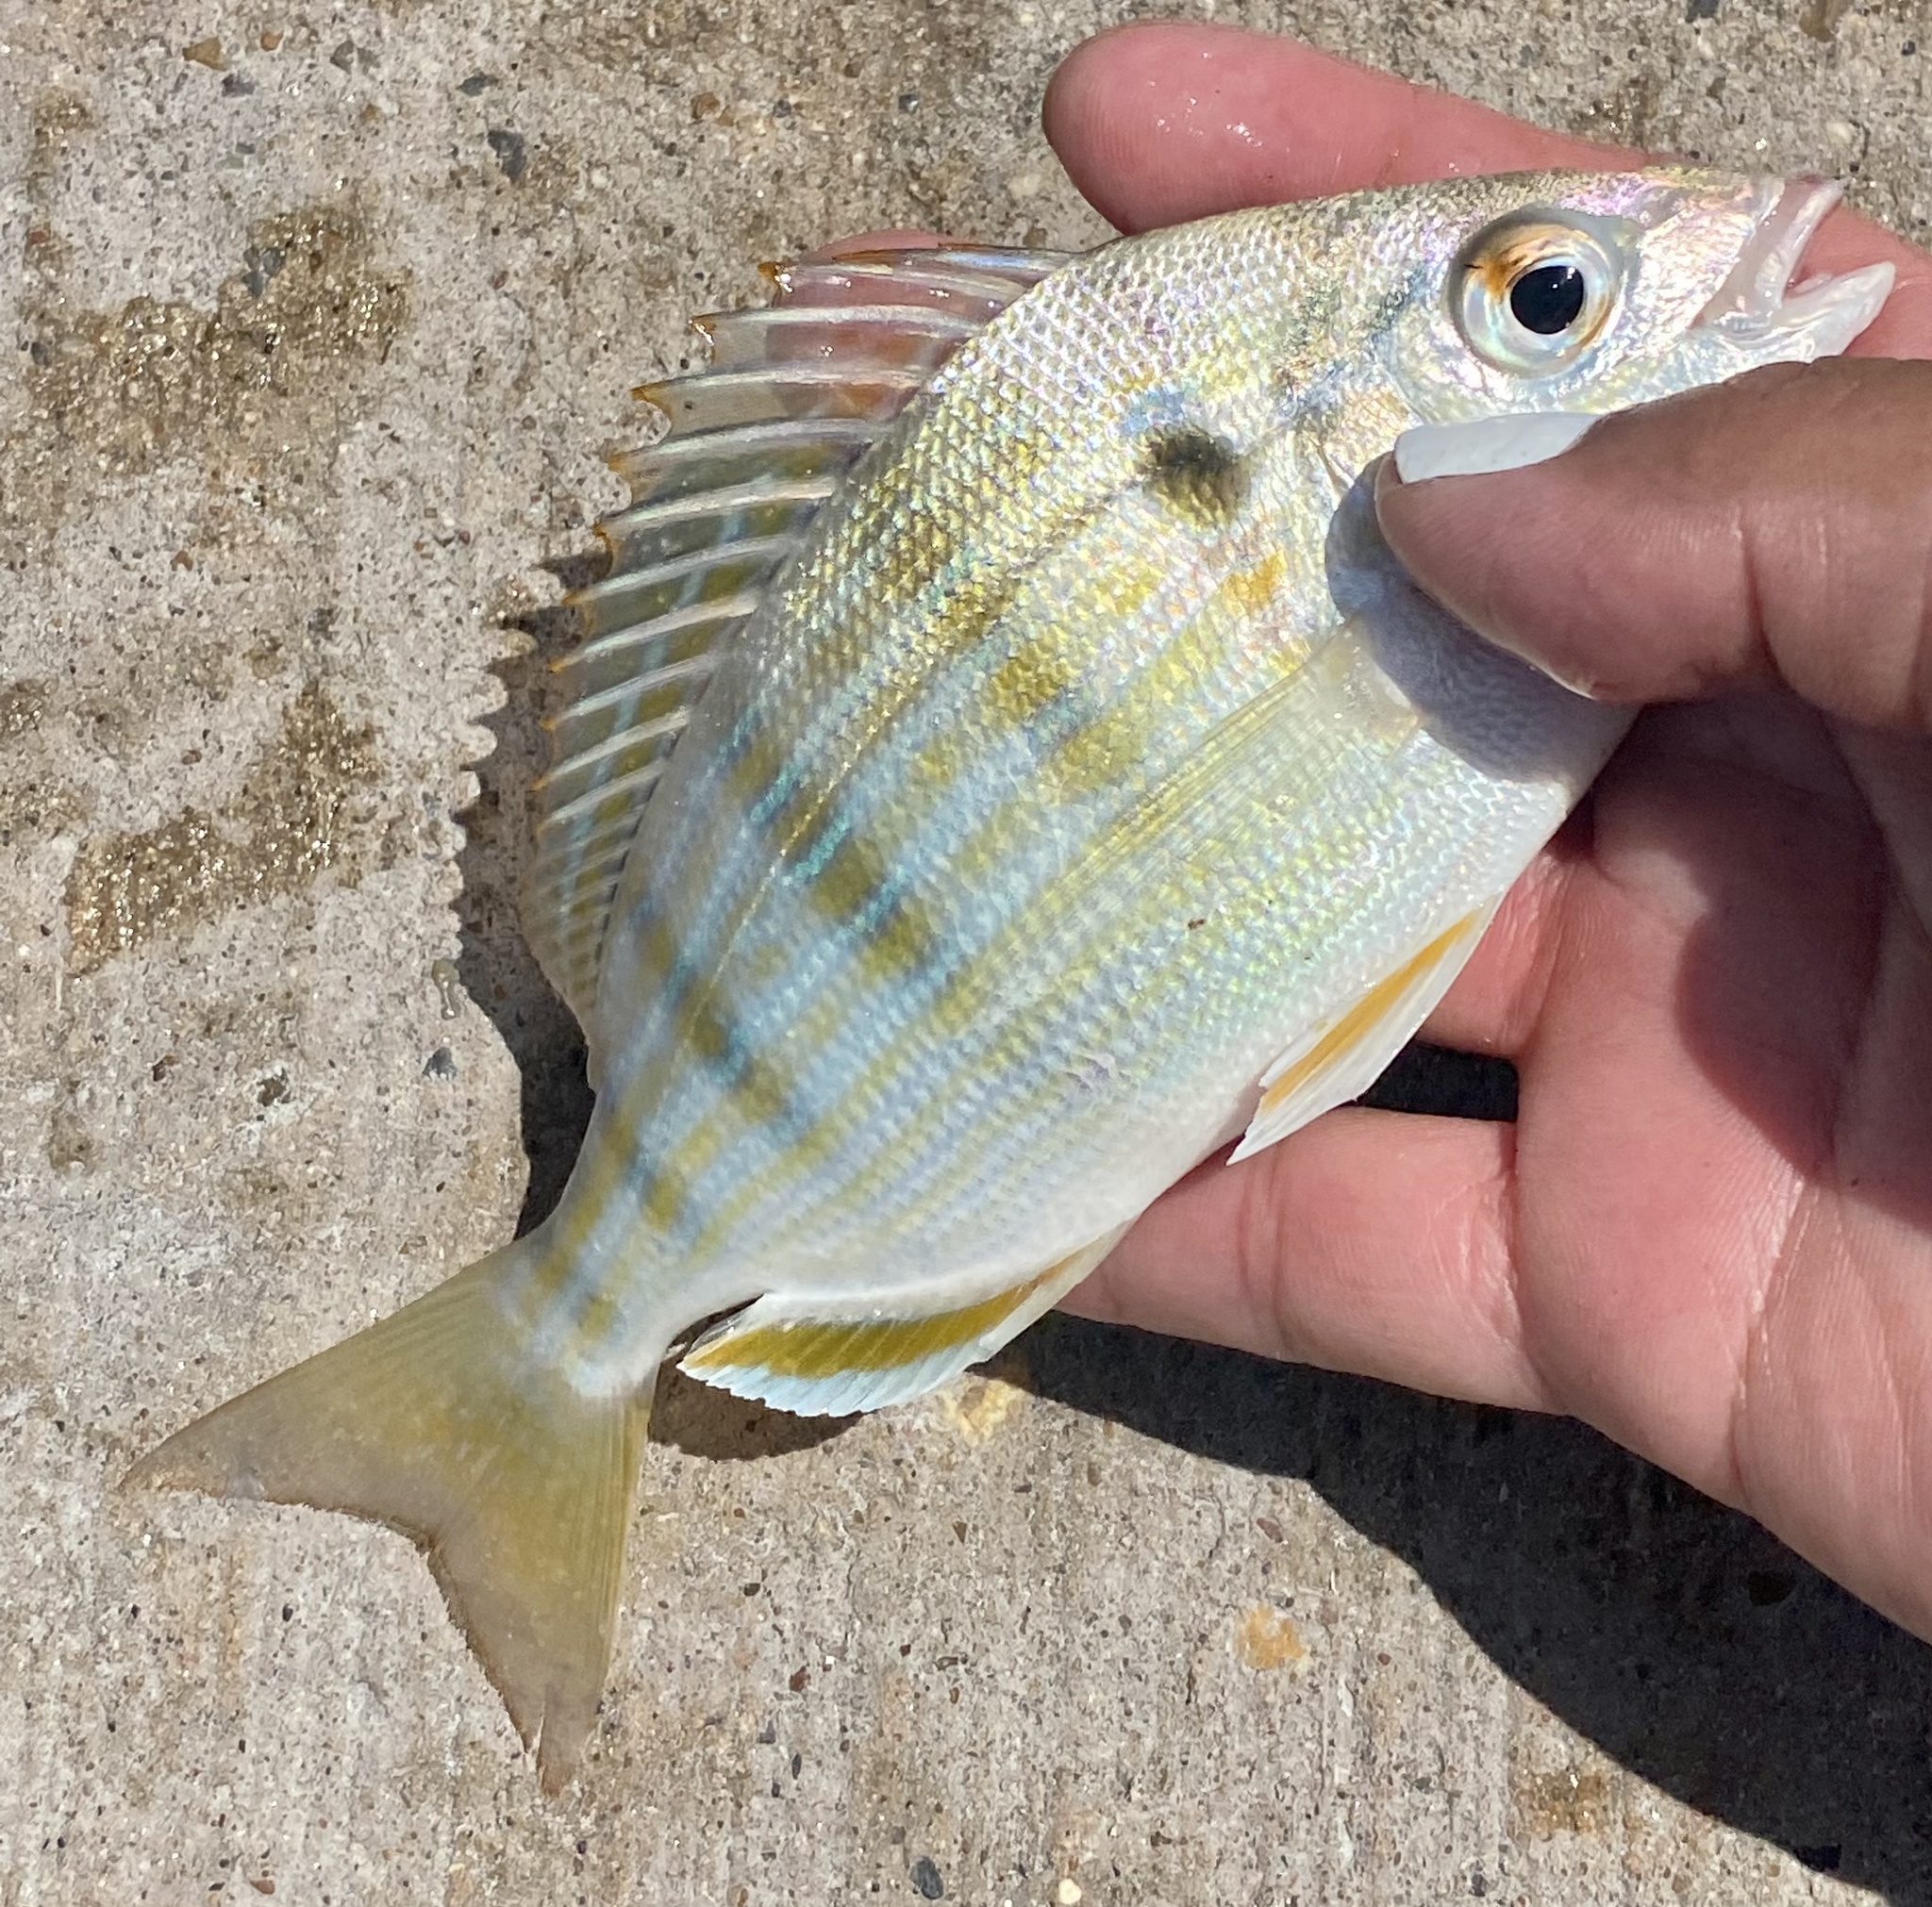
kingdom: Animalia
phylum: Chordata
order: Perciformes
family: Sparidae
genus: Lagodon
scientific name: Lagodon rhomboides
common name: Pinfish
